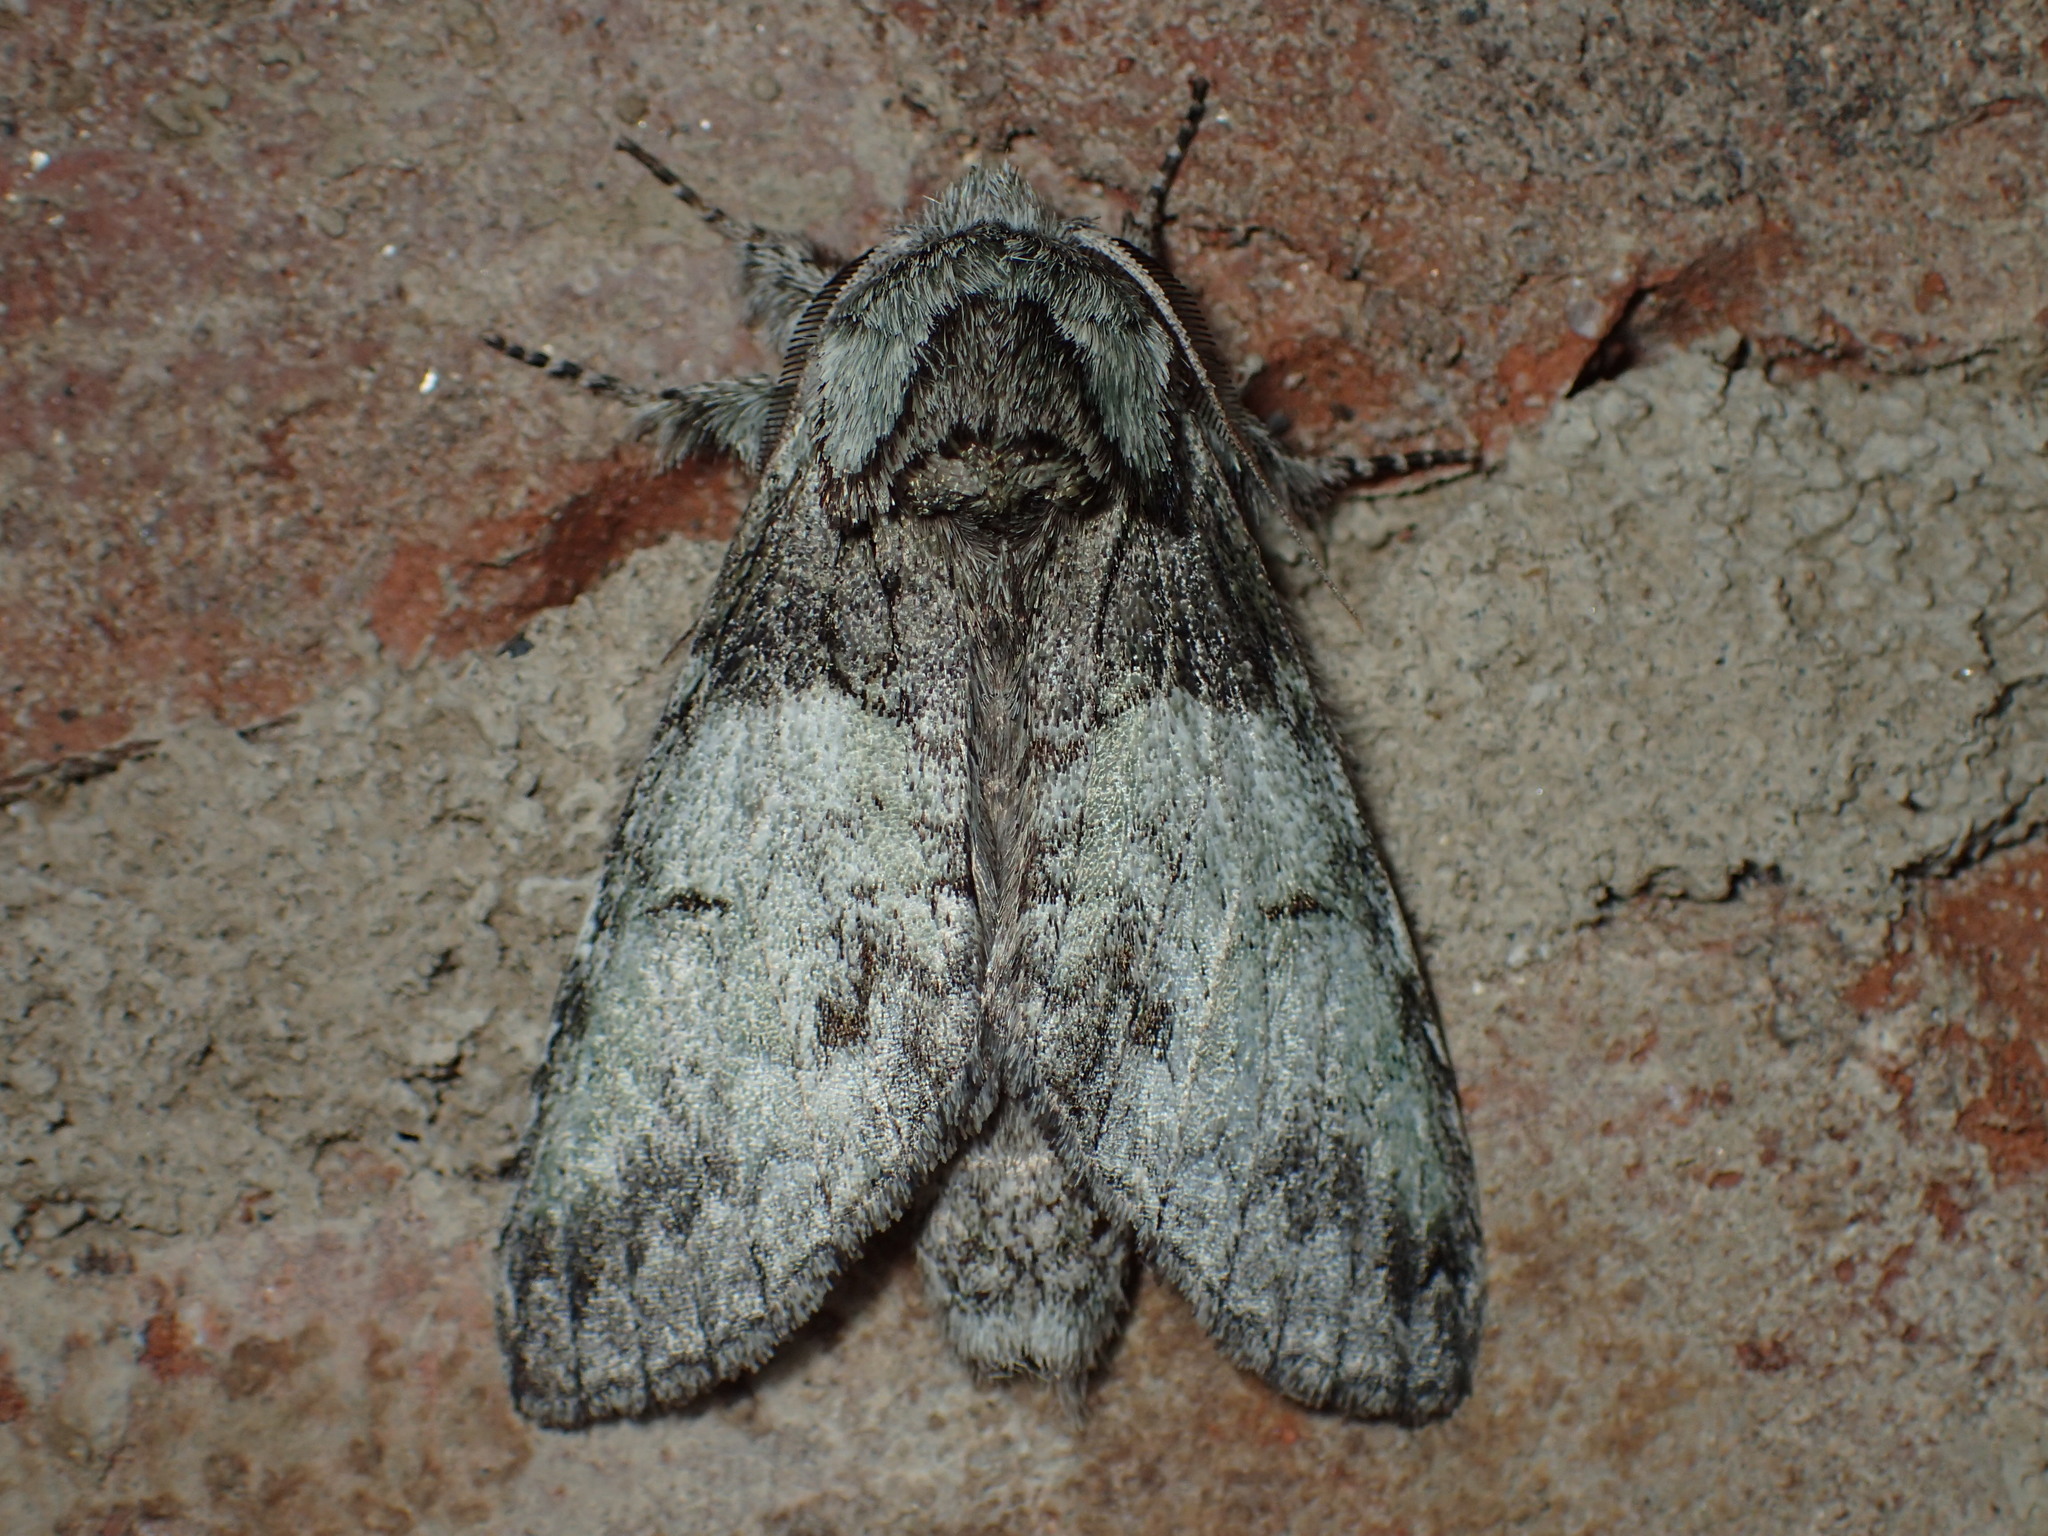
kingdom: Animalia
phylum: Arthropoda
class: Insecta
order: Lepidoptera
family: Notodontidae
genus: Macrurocampa
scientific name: Macrurocampa marthesia
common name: Mottled prominent
